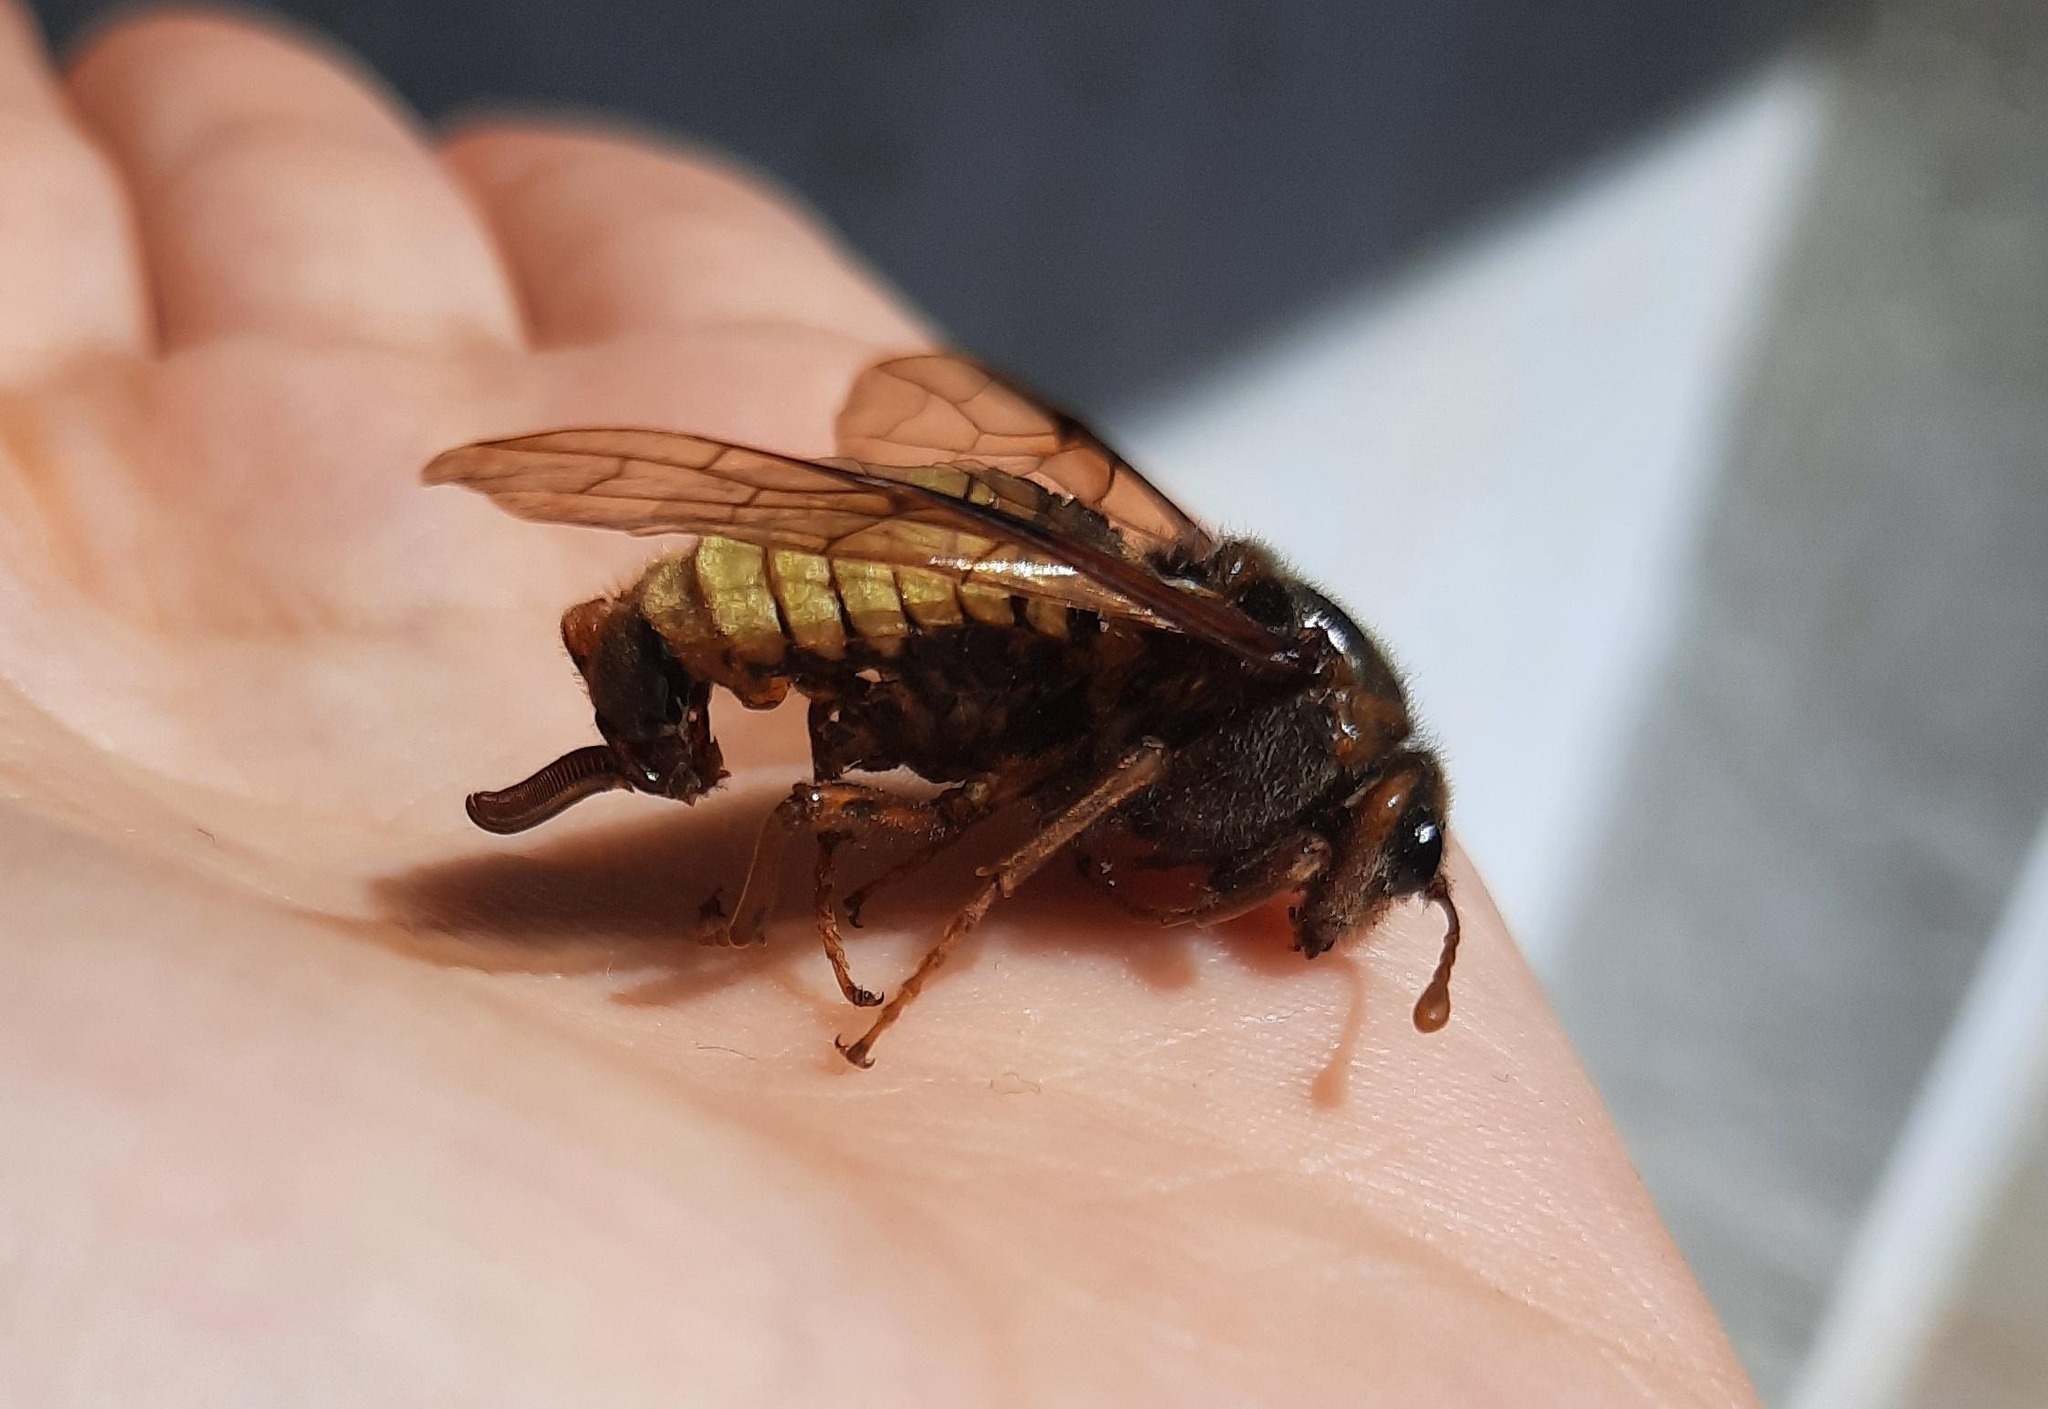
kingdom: Animalia
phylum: Arthropoda
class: Insecta
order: Hymenoptera
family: Cimbicidae
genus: Cimbex
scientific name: Cimbex fagi
